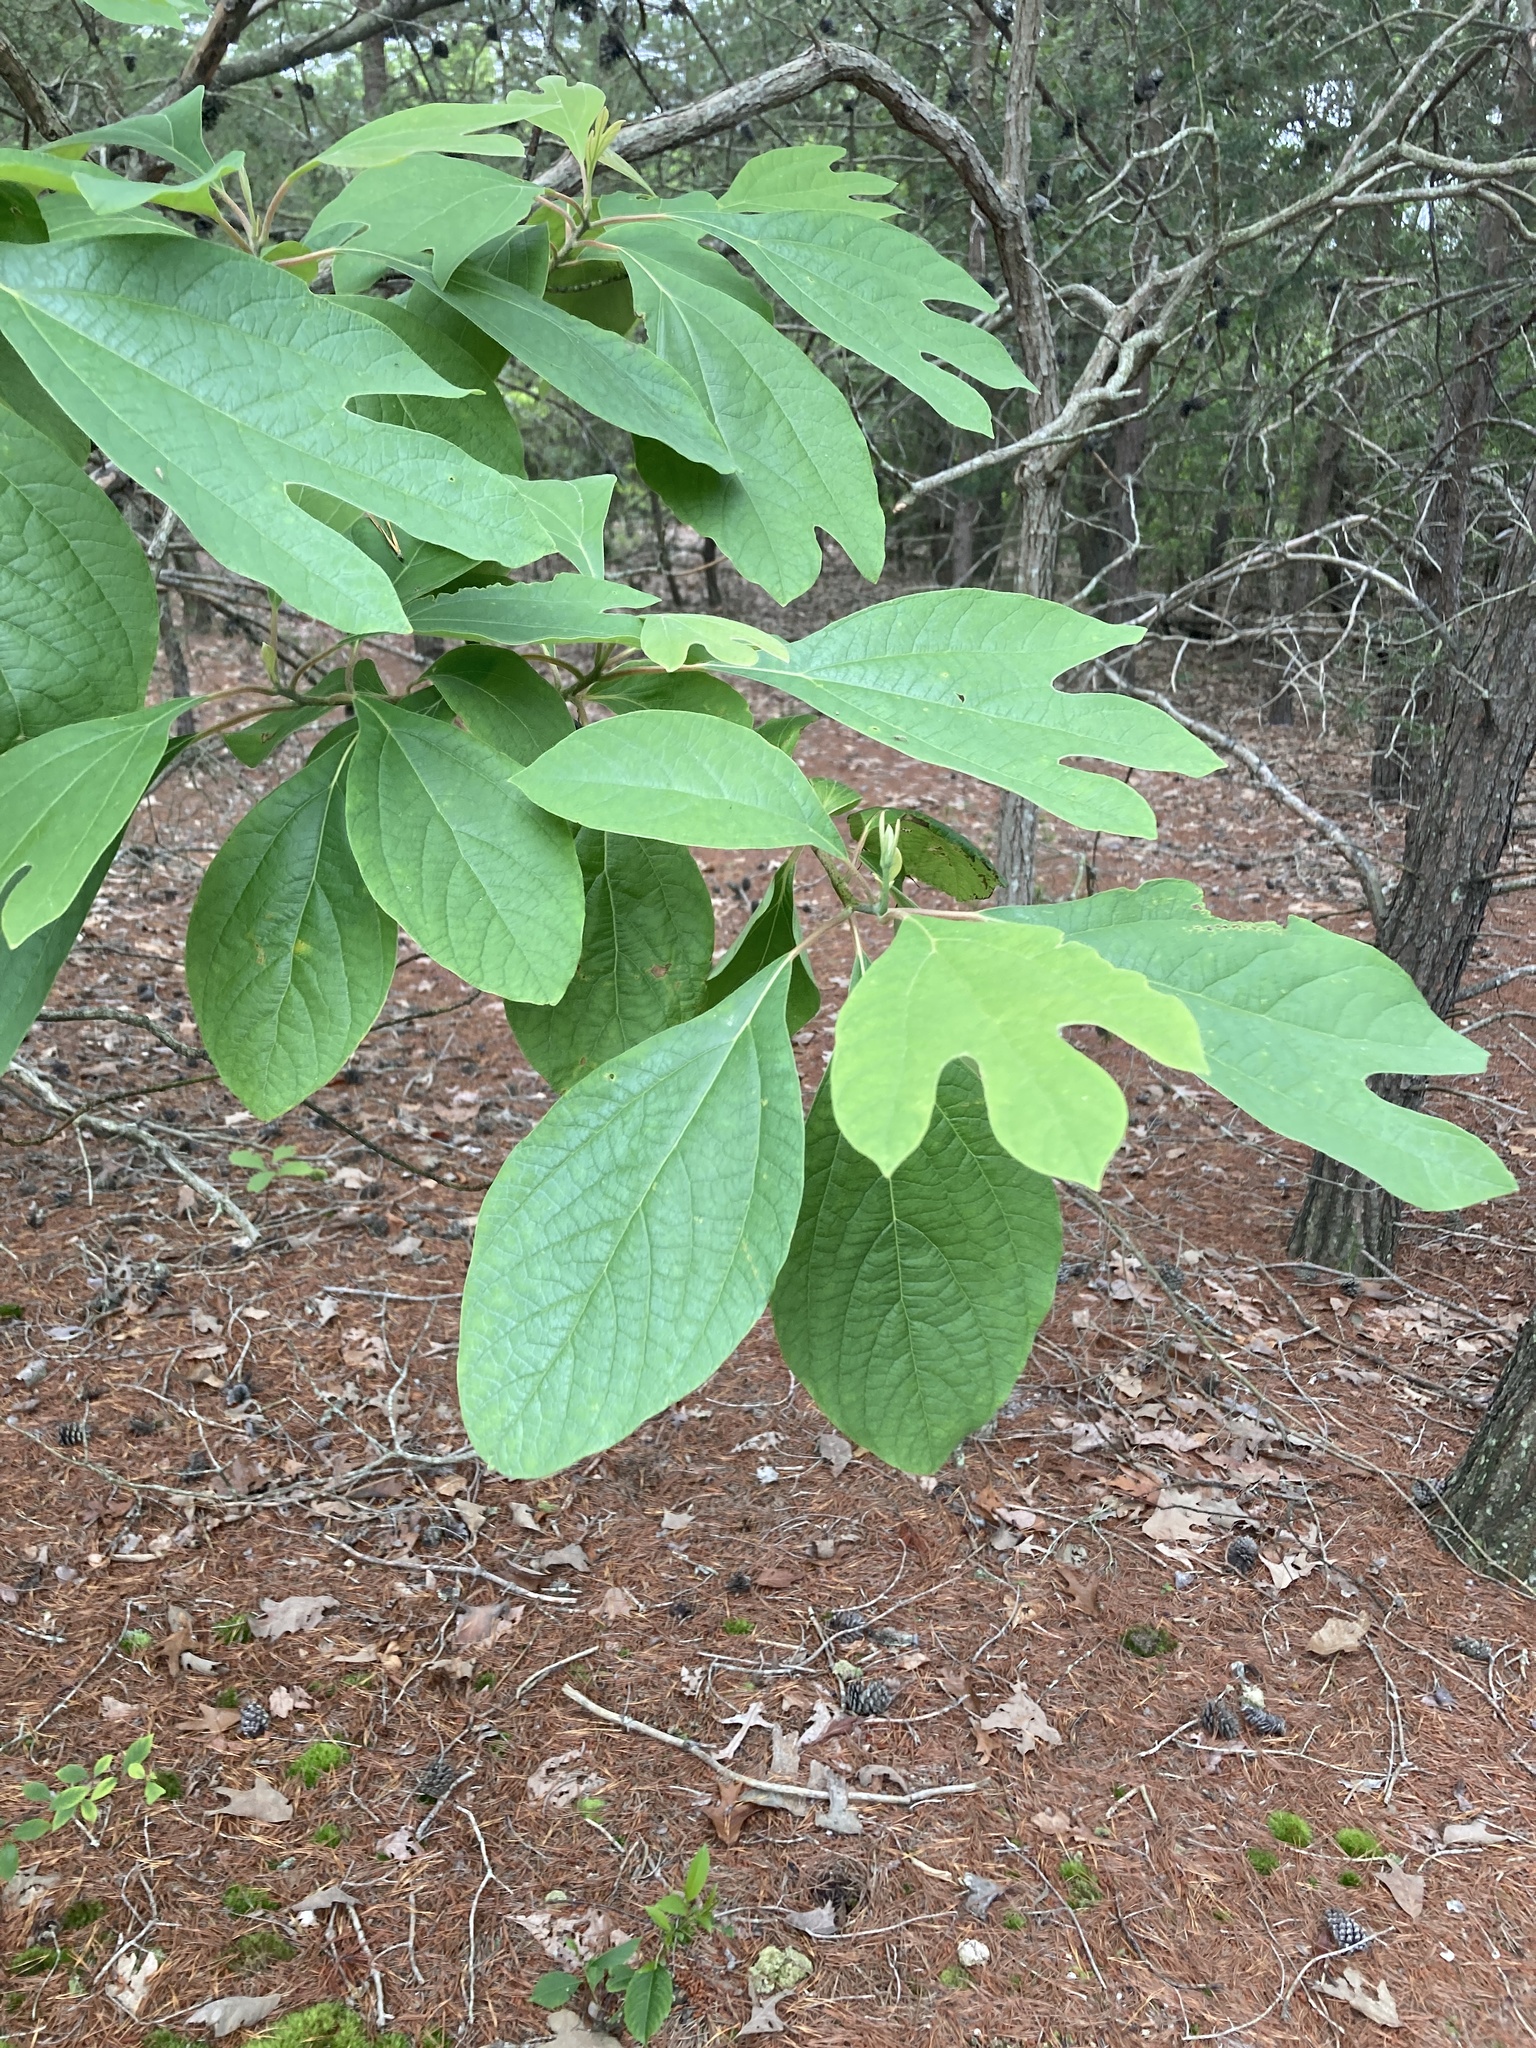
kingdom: Plantae
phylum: Tracheophyta
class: Magnoliopsida
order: Laurales
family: Lauraceae
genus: Sassafras
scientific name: Sassafras albidum
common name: Sassafras
